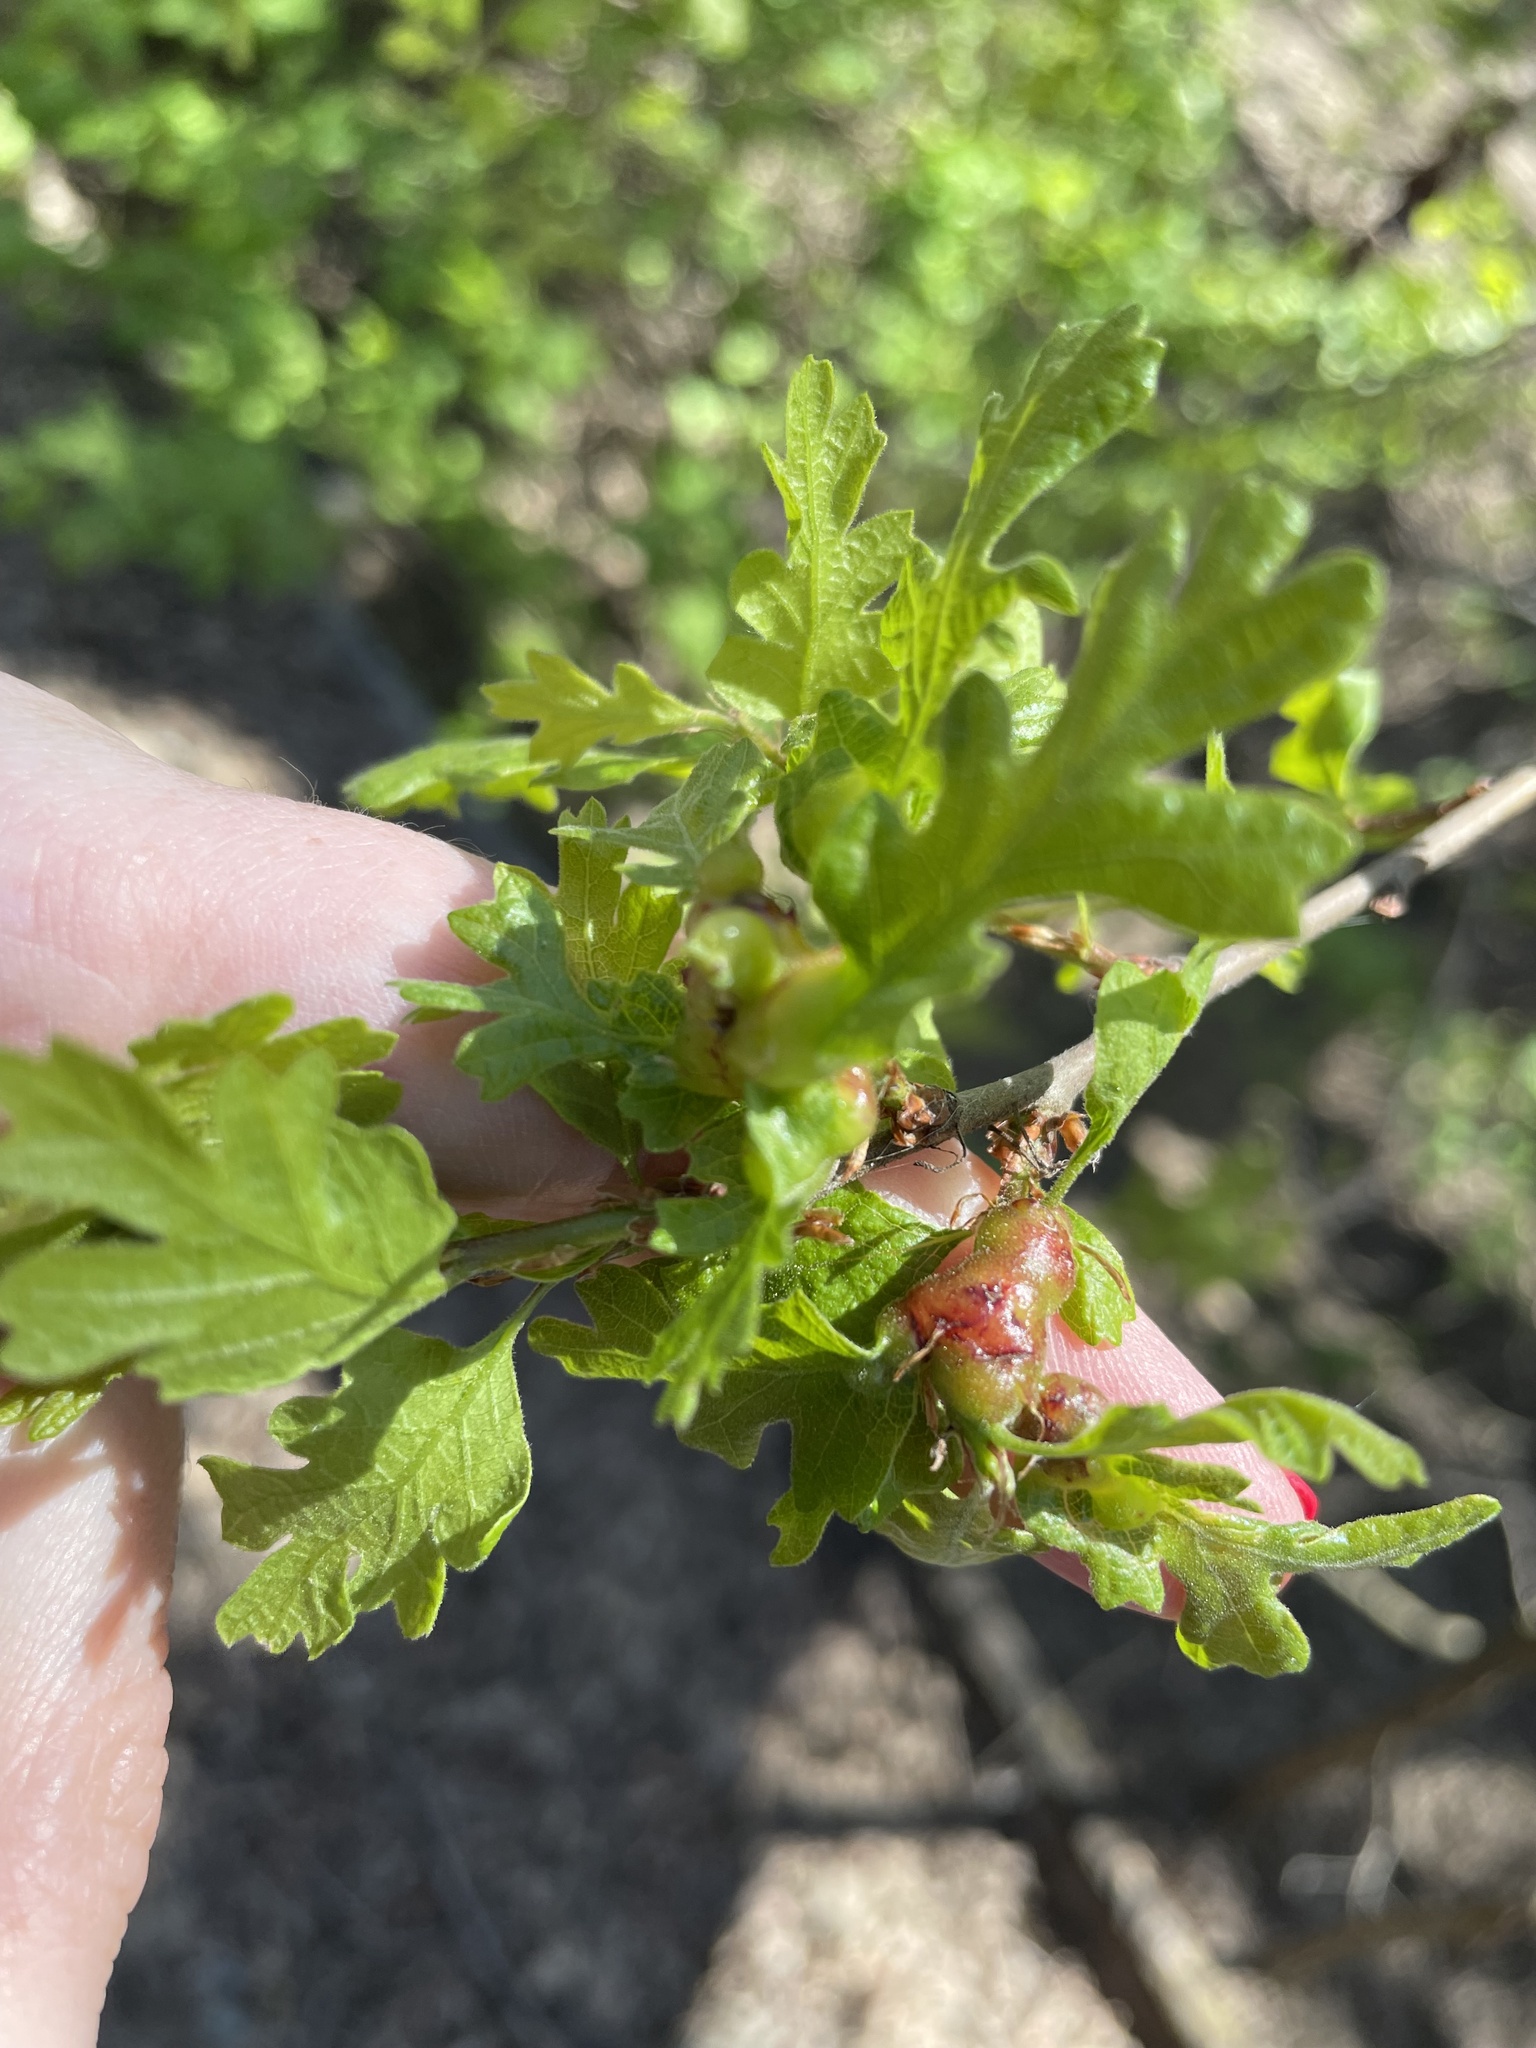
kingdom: Animalia
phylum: Arthropoda
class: Insecta
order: Hymenoptera
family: Cynipidae
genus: Neuroterus
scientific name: Neuroterus
